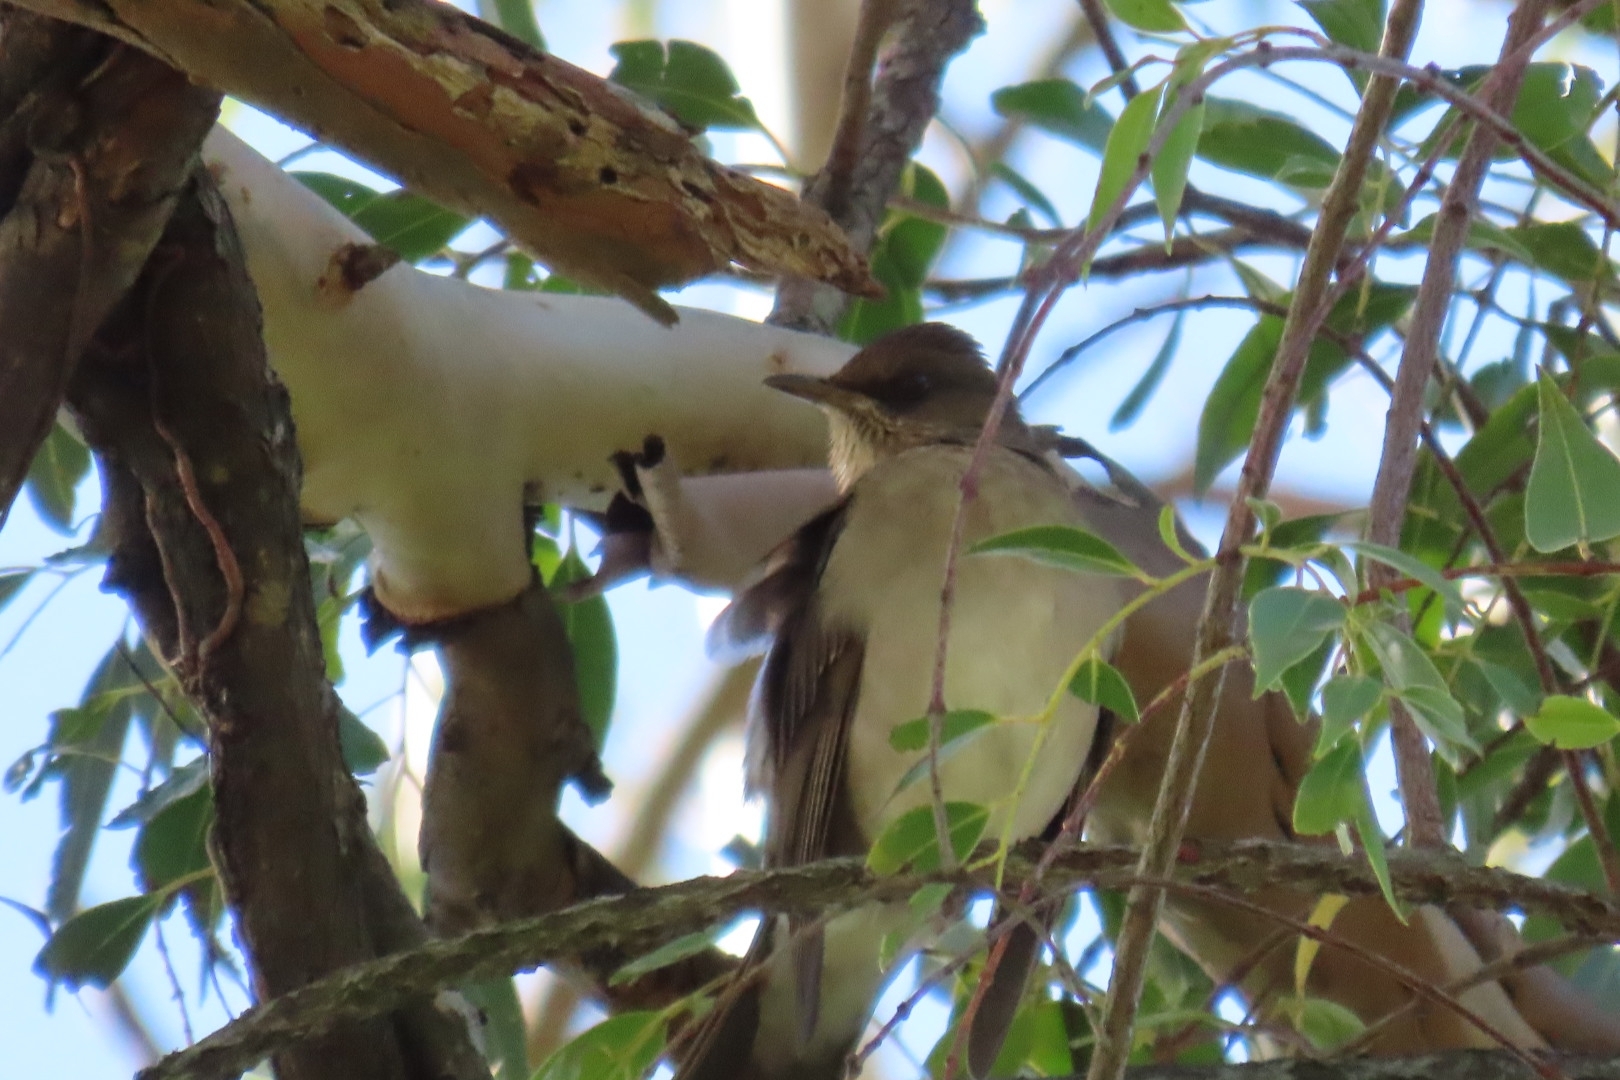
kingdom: Animalia
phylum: Chordata
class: Aves
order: Passeriformes
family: Turdidae
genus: Turdus
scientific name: Turdus amaurochalinus
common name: Creamy-bellied thrush
